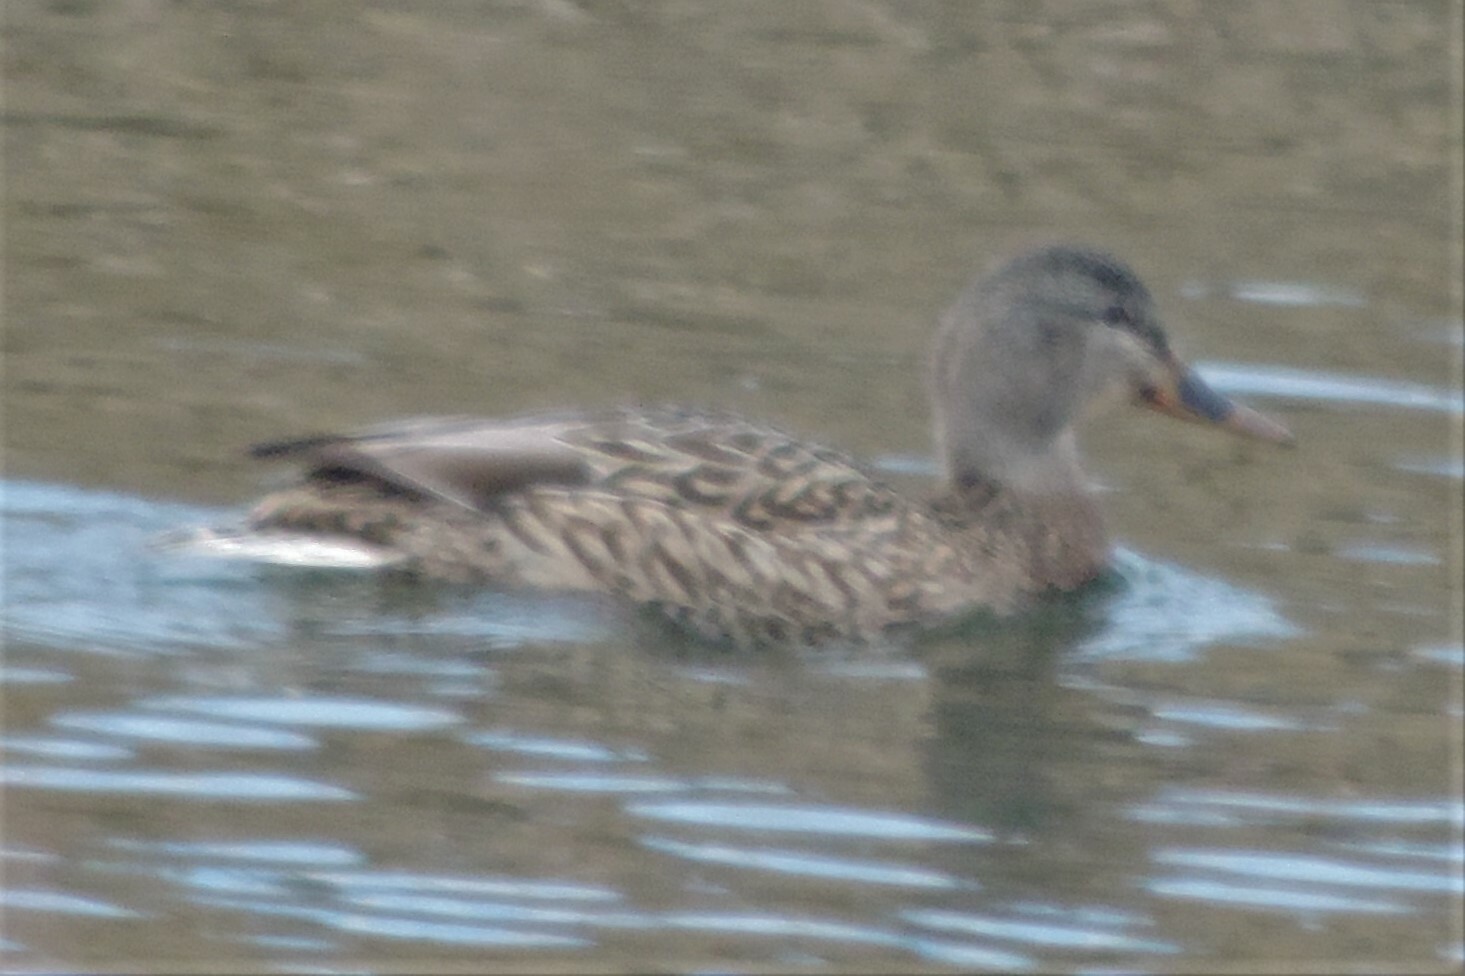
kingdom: Animalia
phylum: Chordata
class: Aves
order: Anseriformes
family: Anatidae
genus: Anas
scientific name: Anas platyrhynchos
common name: Mallard
